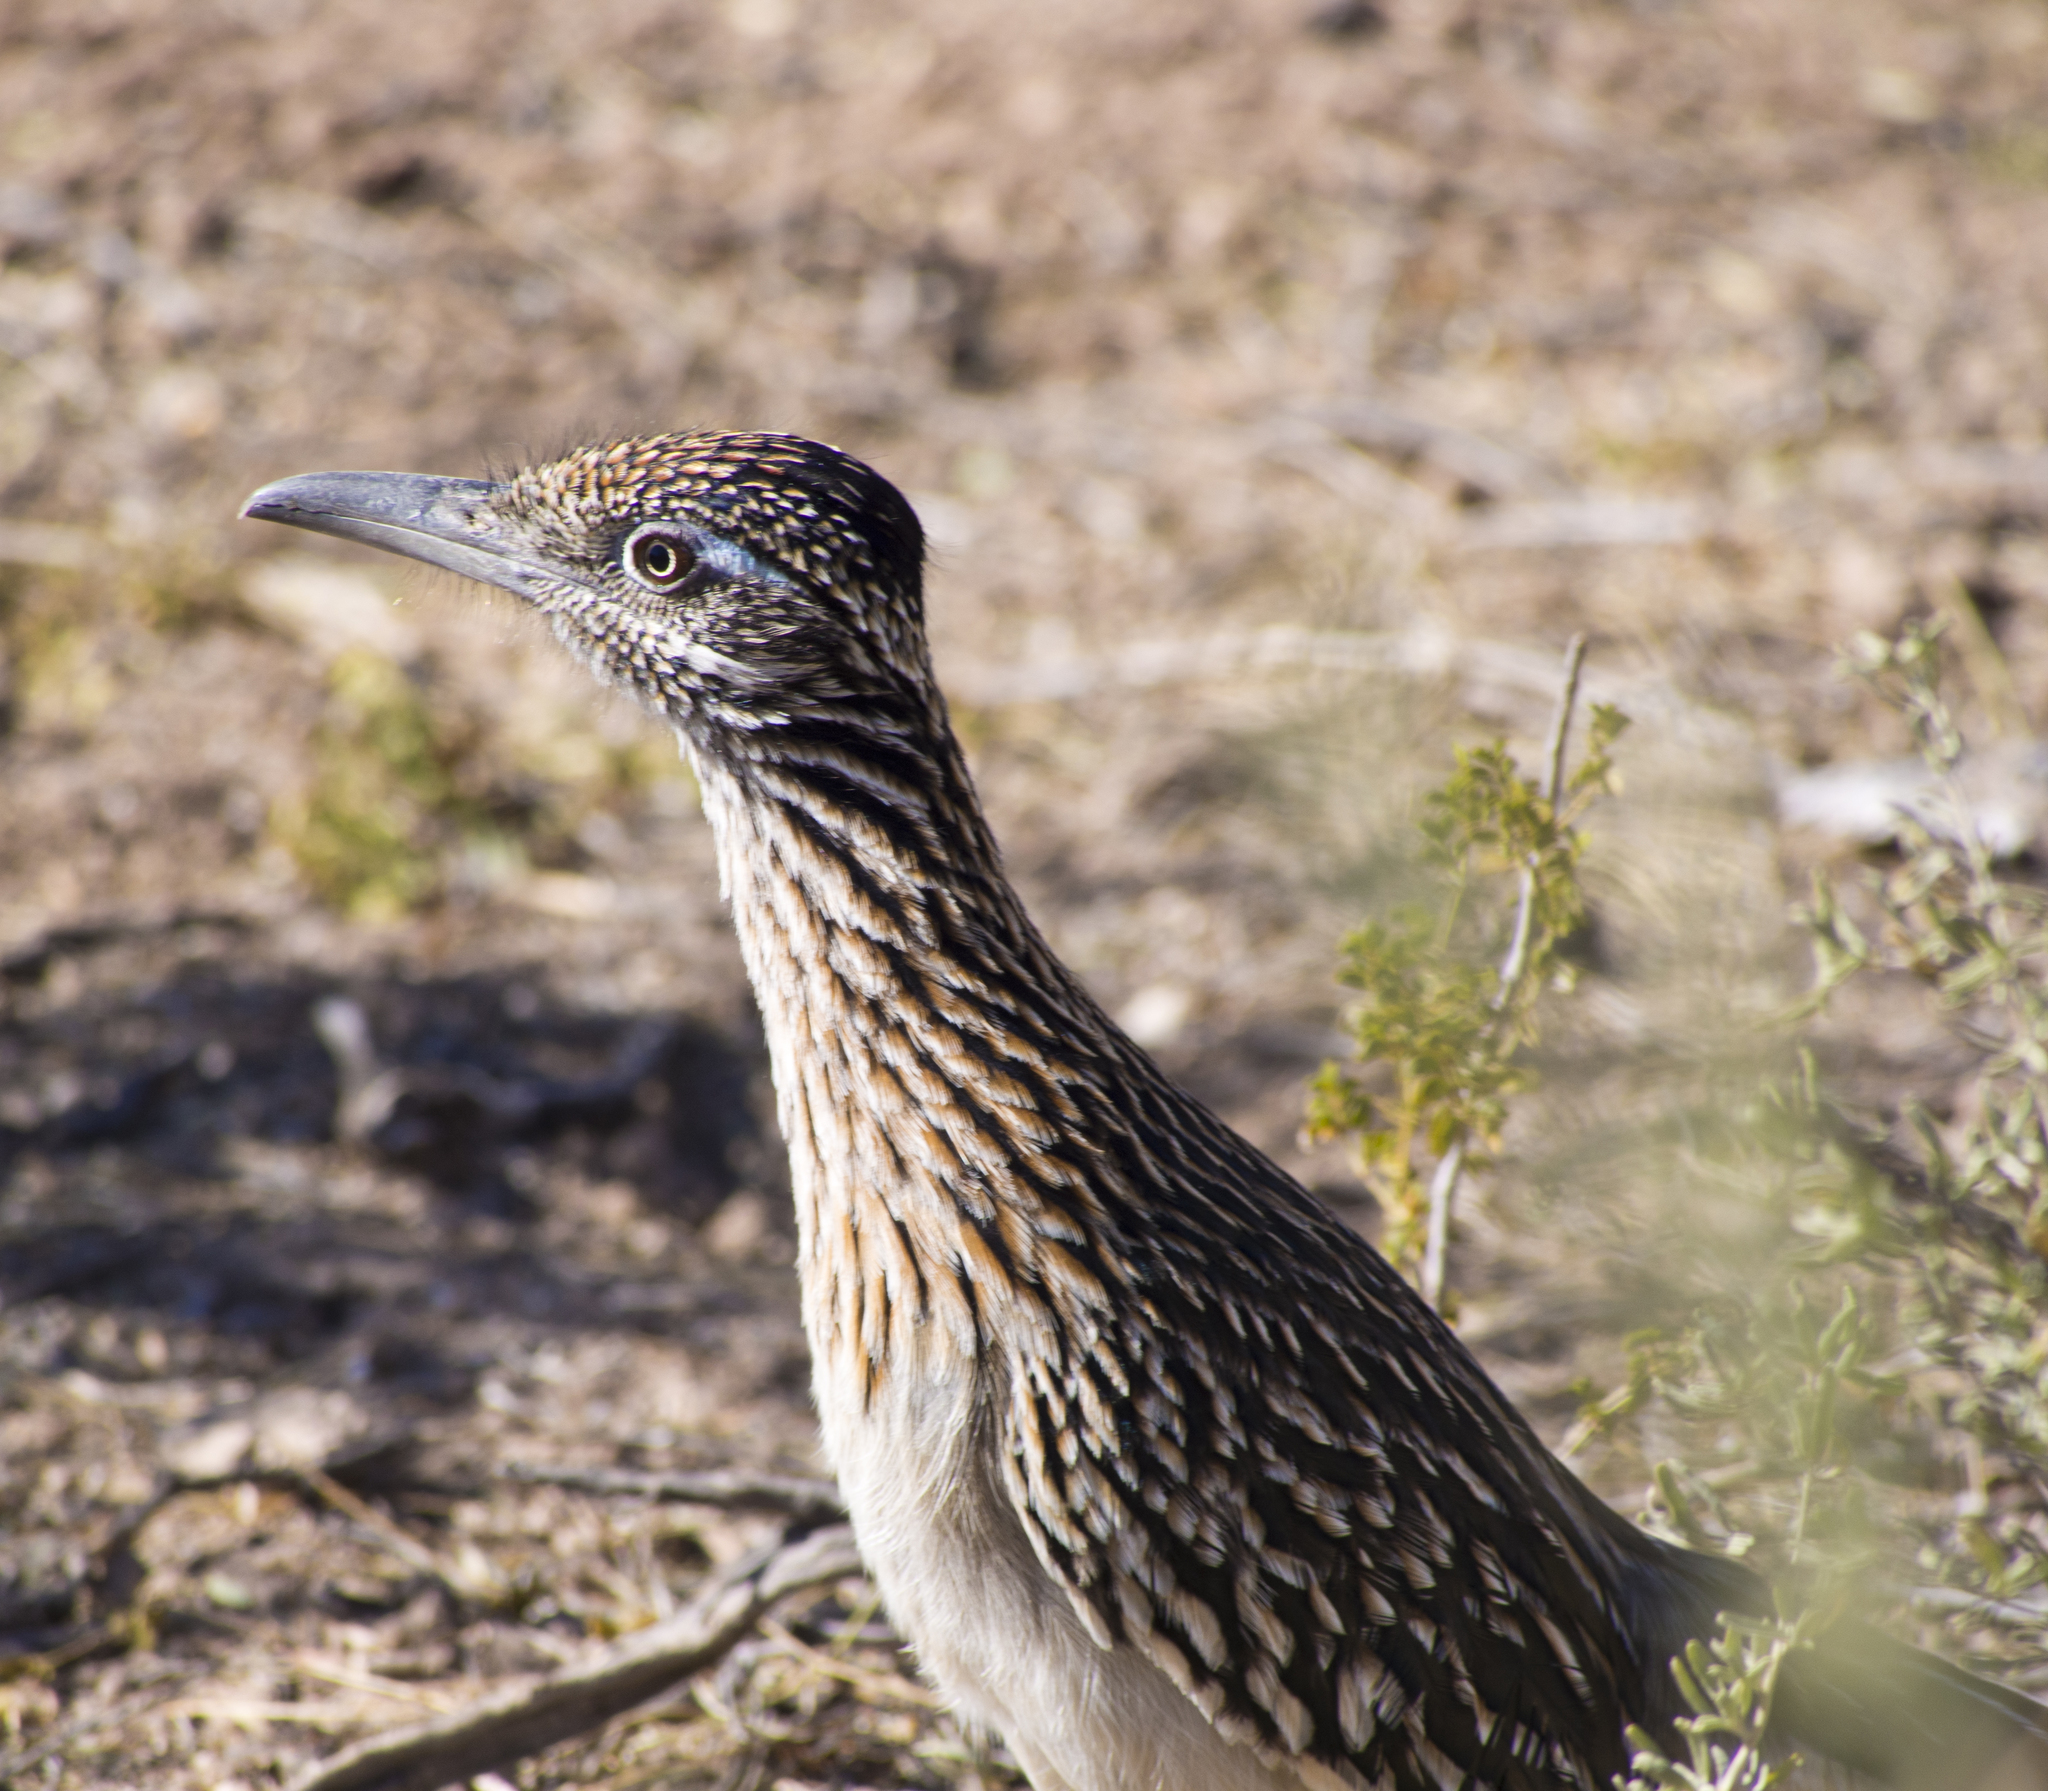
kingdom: Animalia
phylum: Chordata
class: Aves
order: Cuculiformes
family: Cuculidae
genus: Geococcyx
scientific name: Geococcyx californianus
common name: Greater roadrunner
